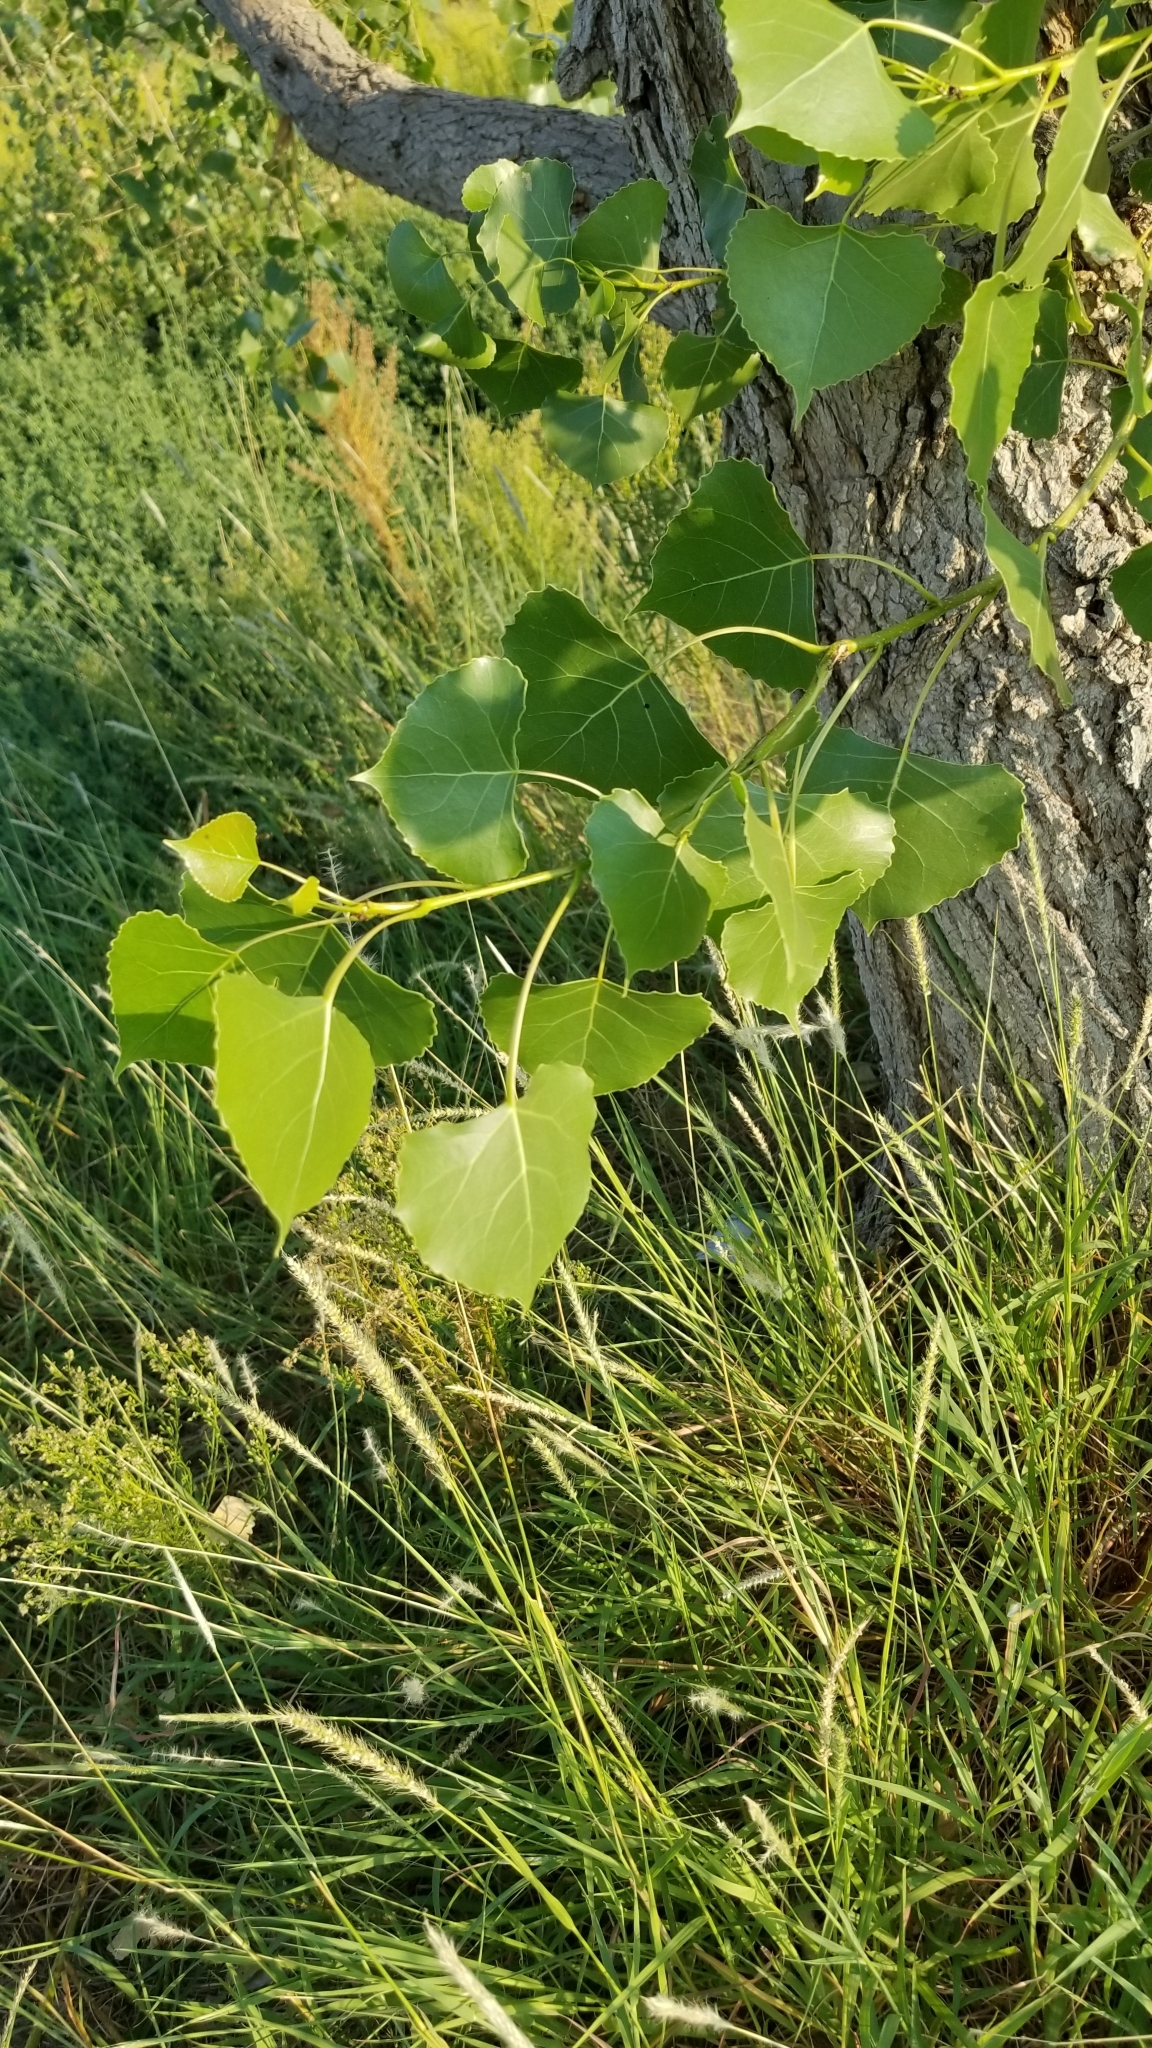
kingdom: Plantae
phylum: Tracheophyta
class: Magnoliopsida
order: Malpighiales
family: Salicaceae
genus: Populus
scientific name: Populus deltoides
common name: Eastern cottonwood
